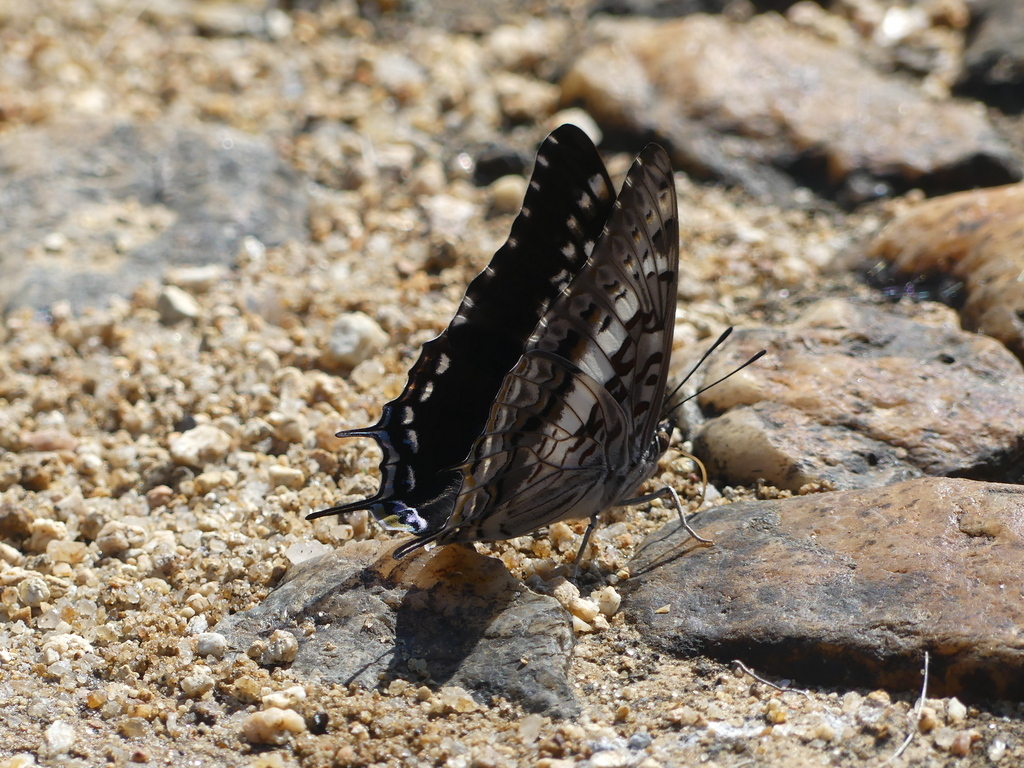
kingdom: Animalia
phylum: Arthropoda
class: Insecta
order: Lepidoptera
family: Nymphalidae
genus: Charaxes
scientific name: Charaxes achaemenes
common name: Bushveld charaxes
